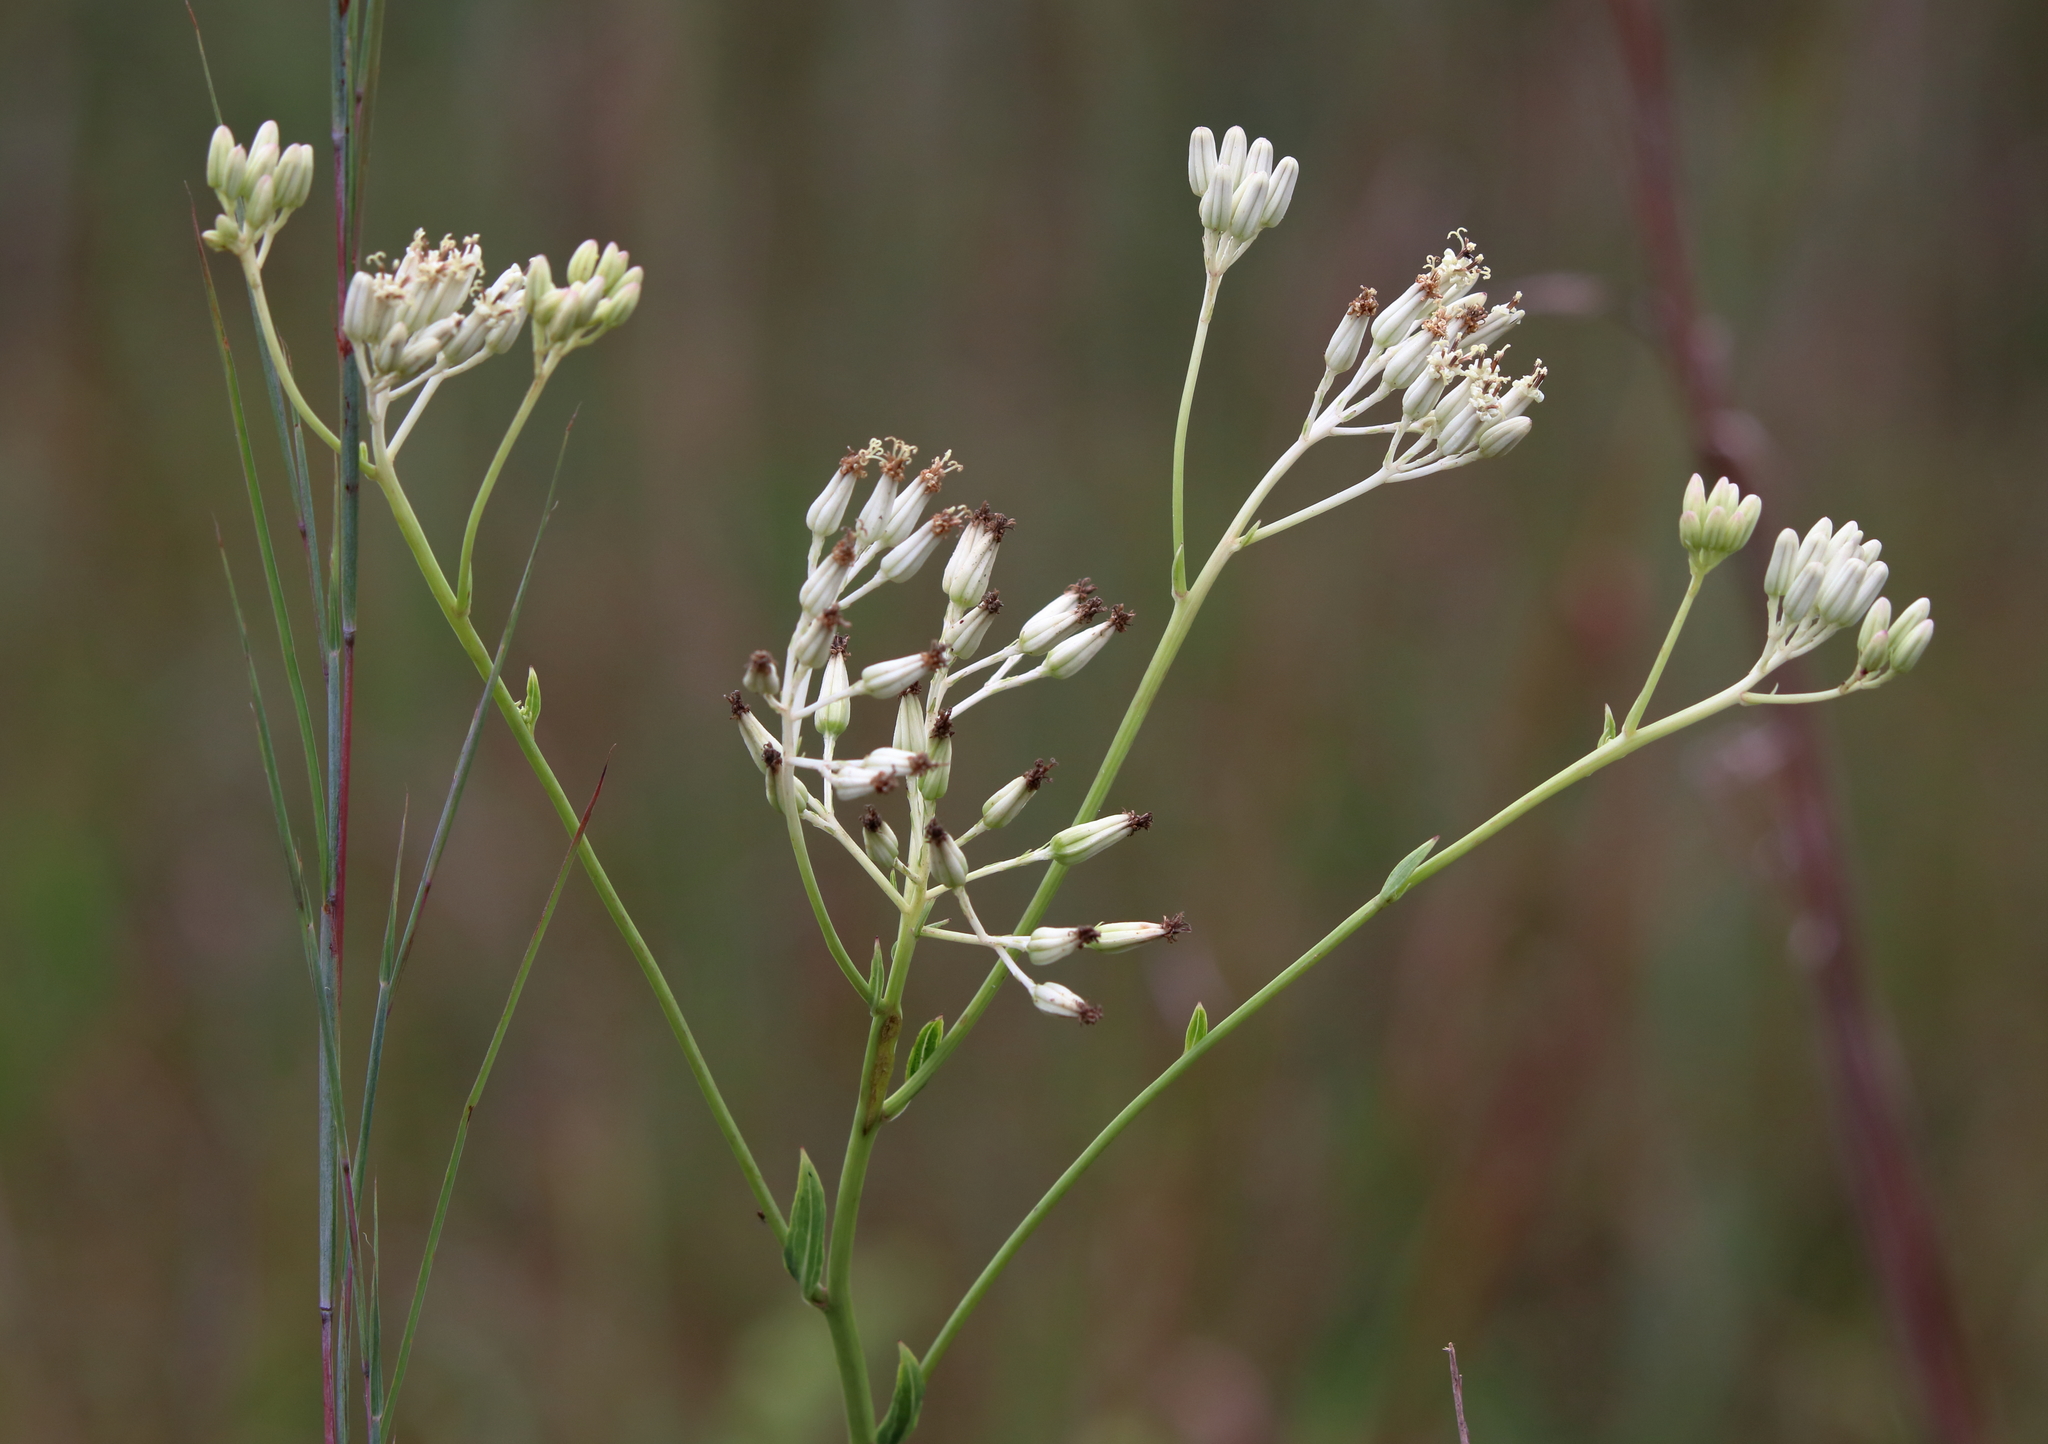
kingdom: Plantae
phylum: Tracheophyta
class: Magnoliopsida
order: Asterales
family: Asteraceae
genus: Arnoglossum
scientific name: Arnoglossum ovatum
